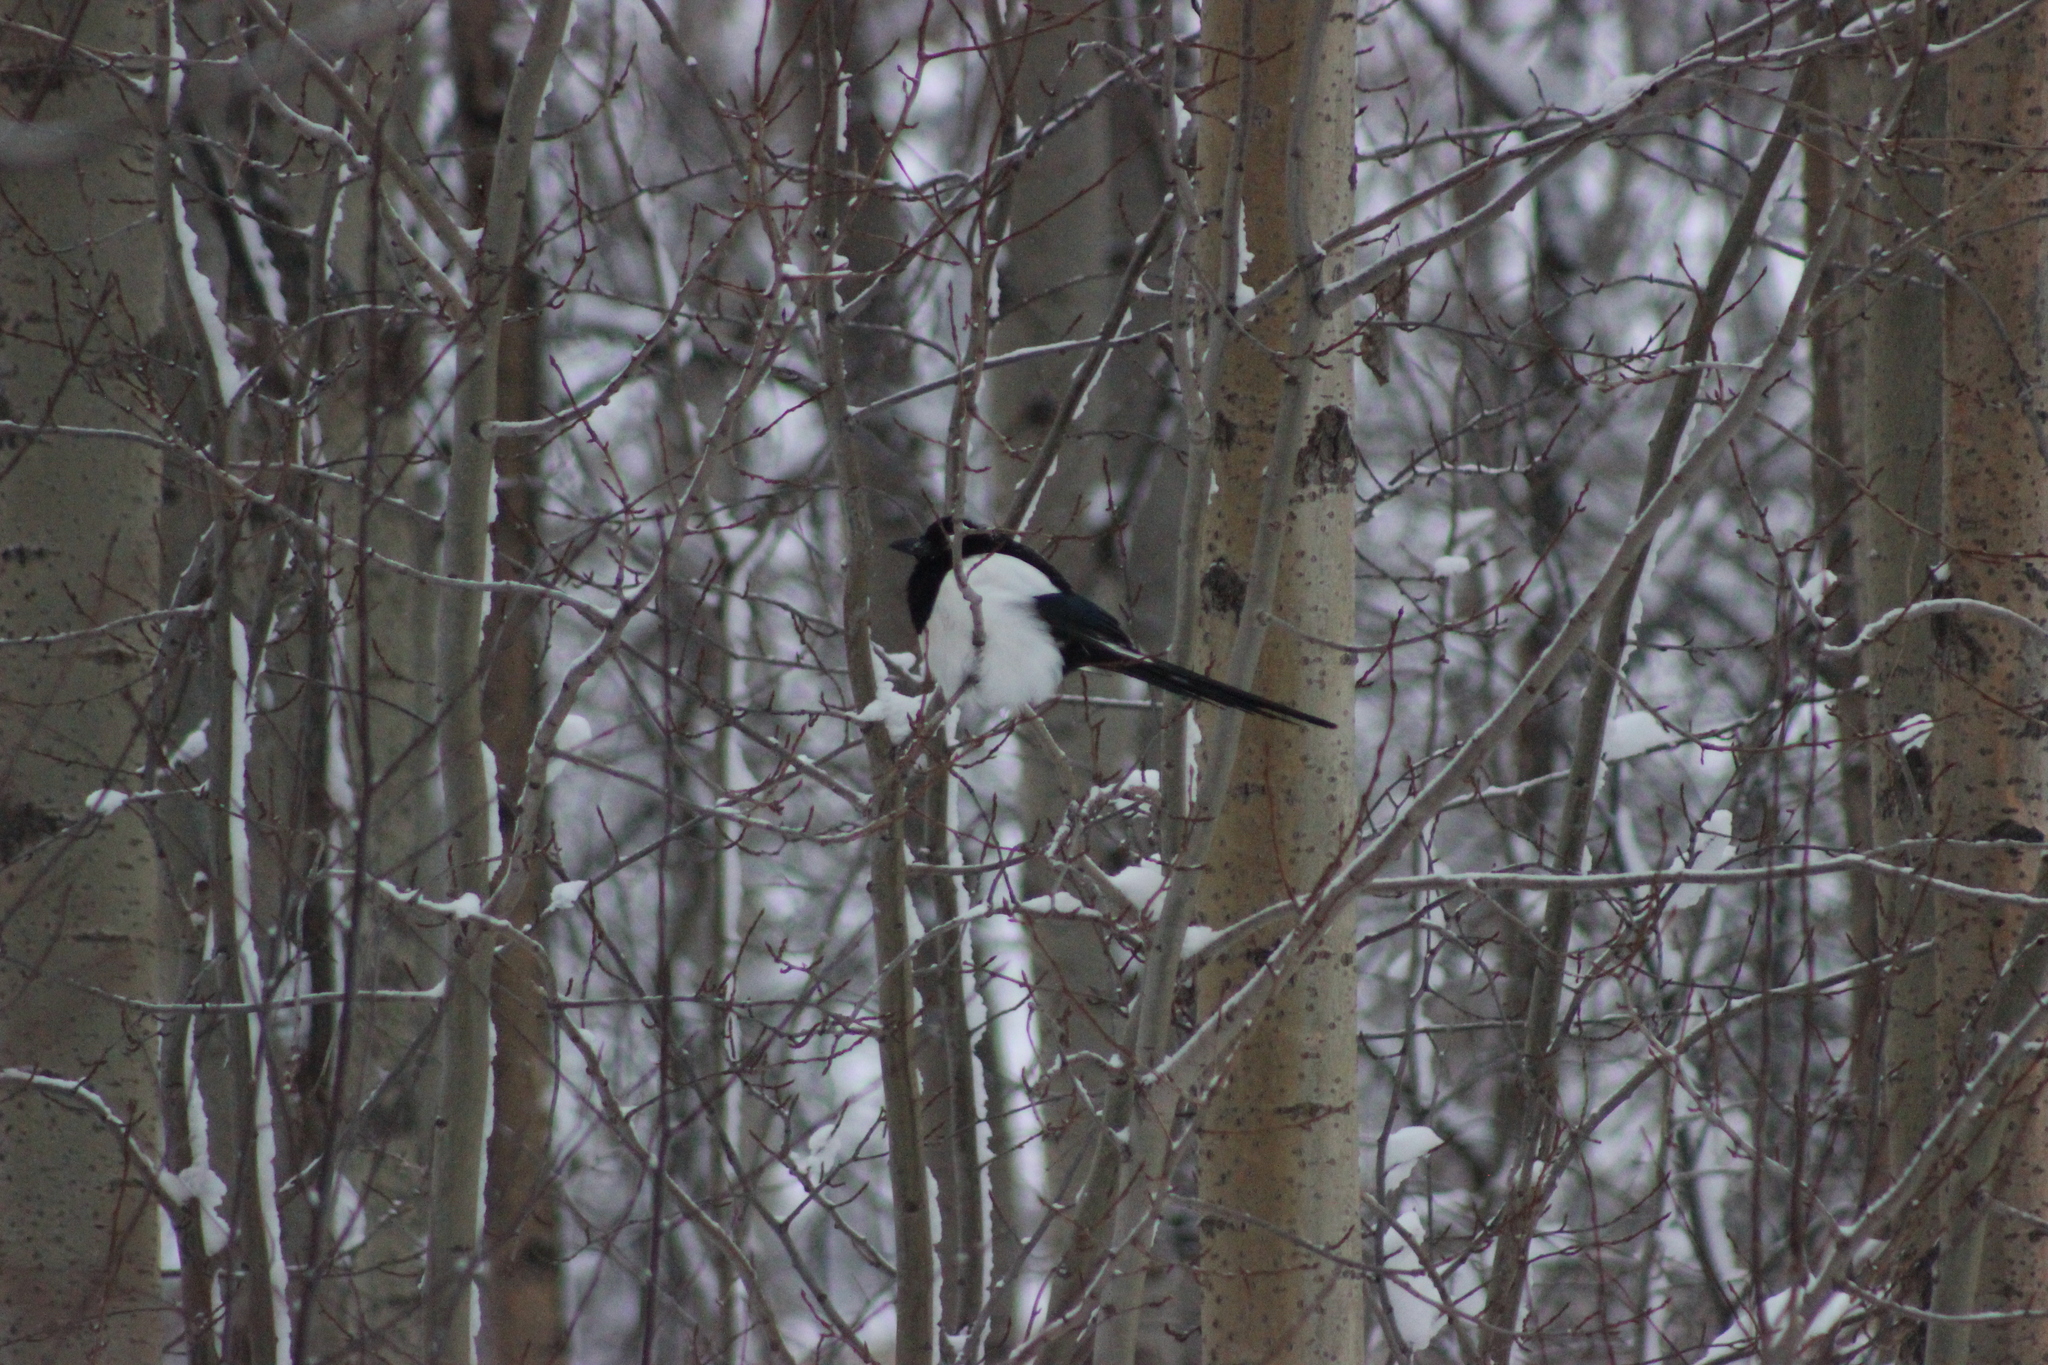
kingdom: Animalia
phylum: Chordata
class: Aves
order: Passeriformes
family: Corvidae
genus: Pica
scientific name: Pica pica
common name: Eurasian magpie
